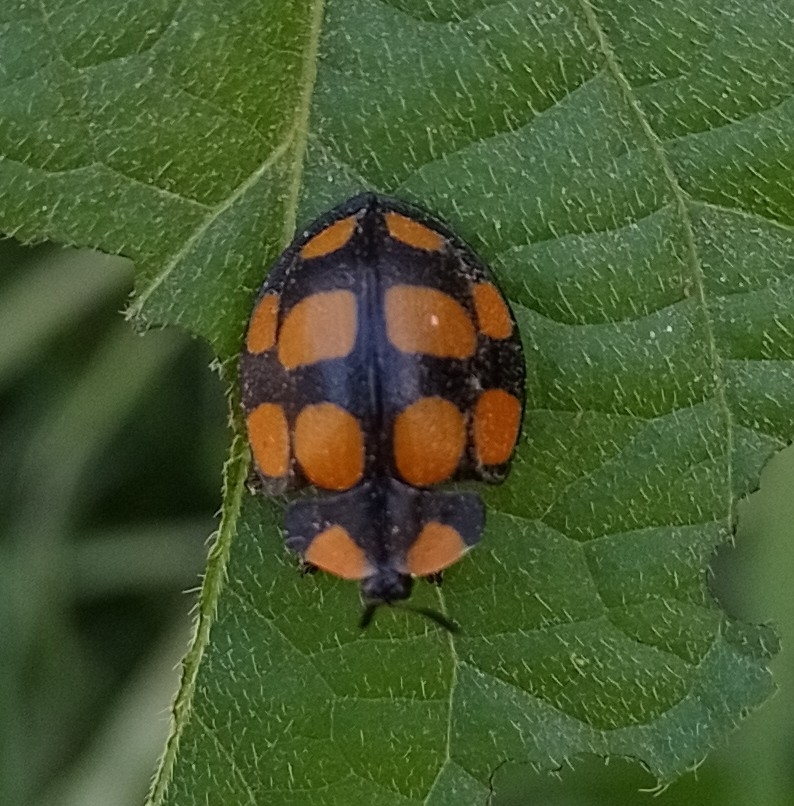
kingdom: Animalia
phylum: Arthropoda
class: Insecta
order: Coleoptera
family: Chrysomelidae
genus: Botanochara
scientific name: Botanochara decempustulata
